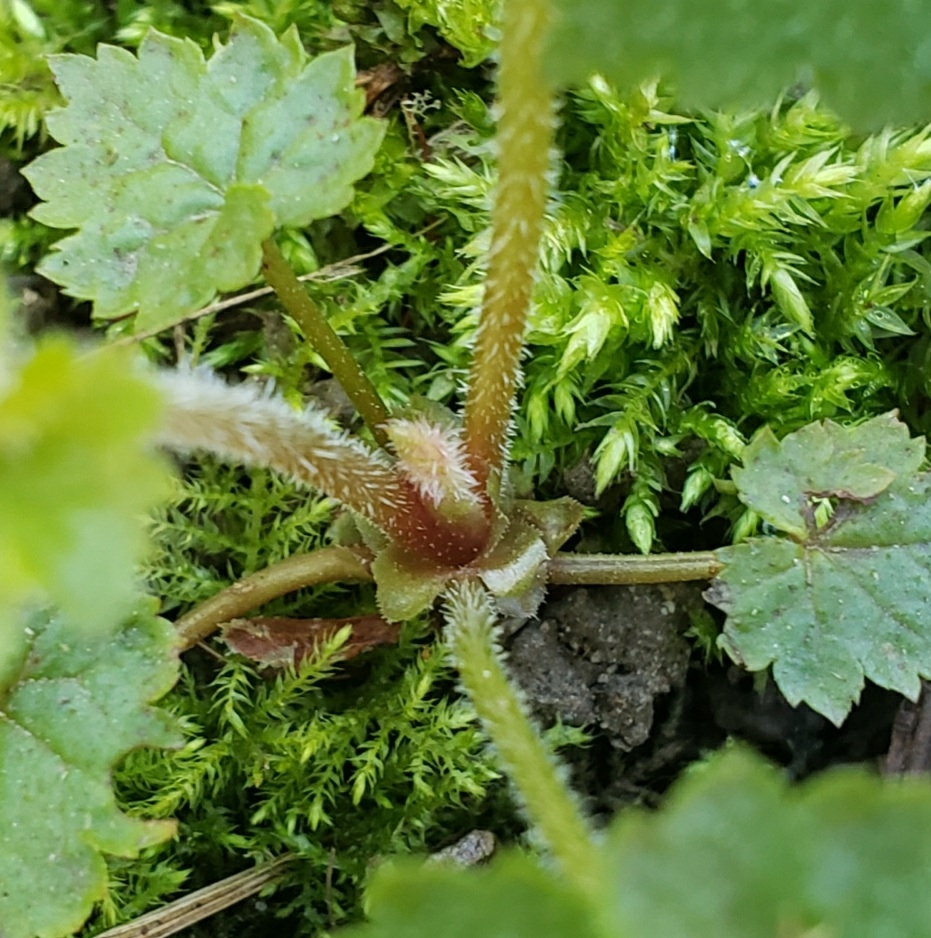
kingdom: Plantae
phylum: Tracheophyta
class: Magnoliopsida
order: Saxifragales
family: Saxifragaceae
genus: Tolmiea
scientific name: Tolmiea menziesii
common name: Pick-a-back-plant
